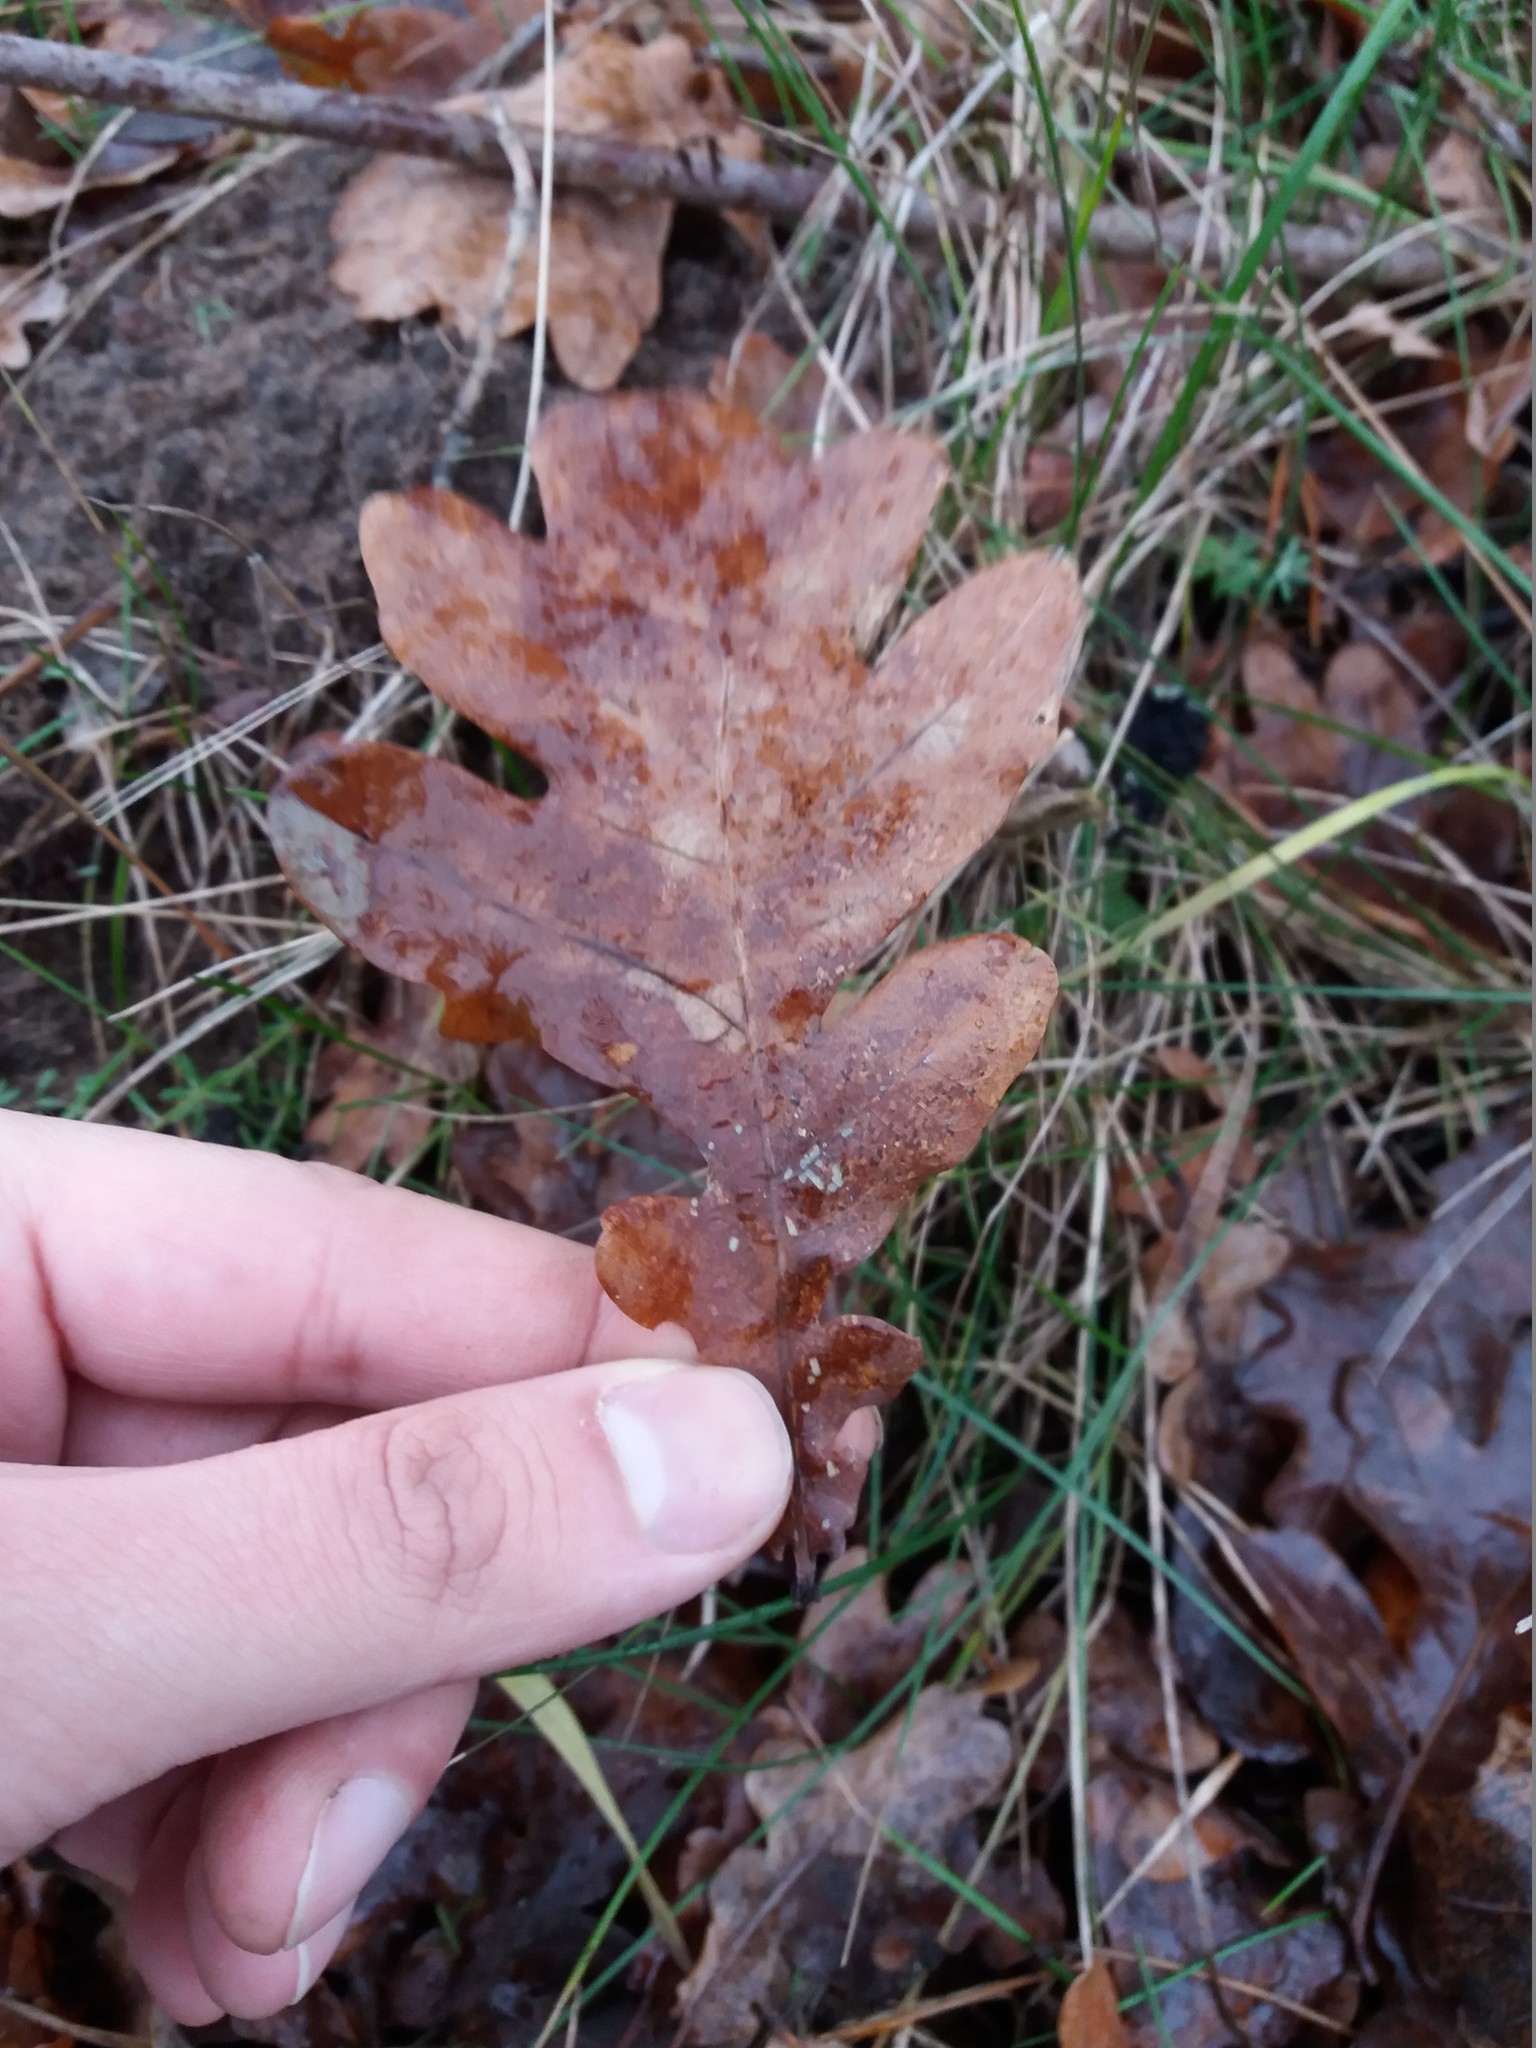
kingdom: Plantae
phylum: Tracheophyta
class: Magnoliopsida
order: Fagales
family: Fagaceae
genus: Quercus
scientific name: Quercus robur
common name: Pedunculate oak
